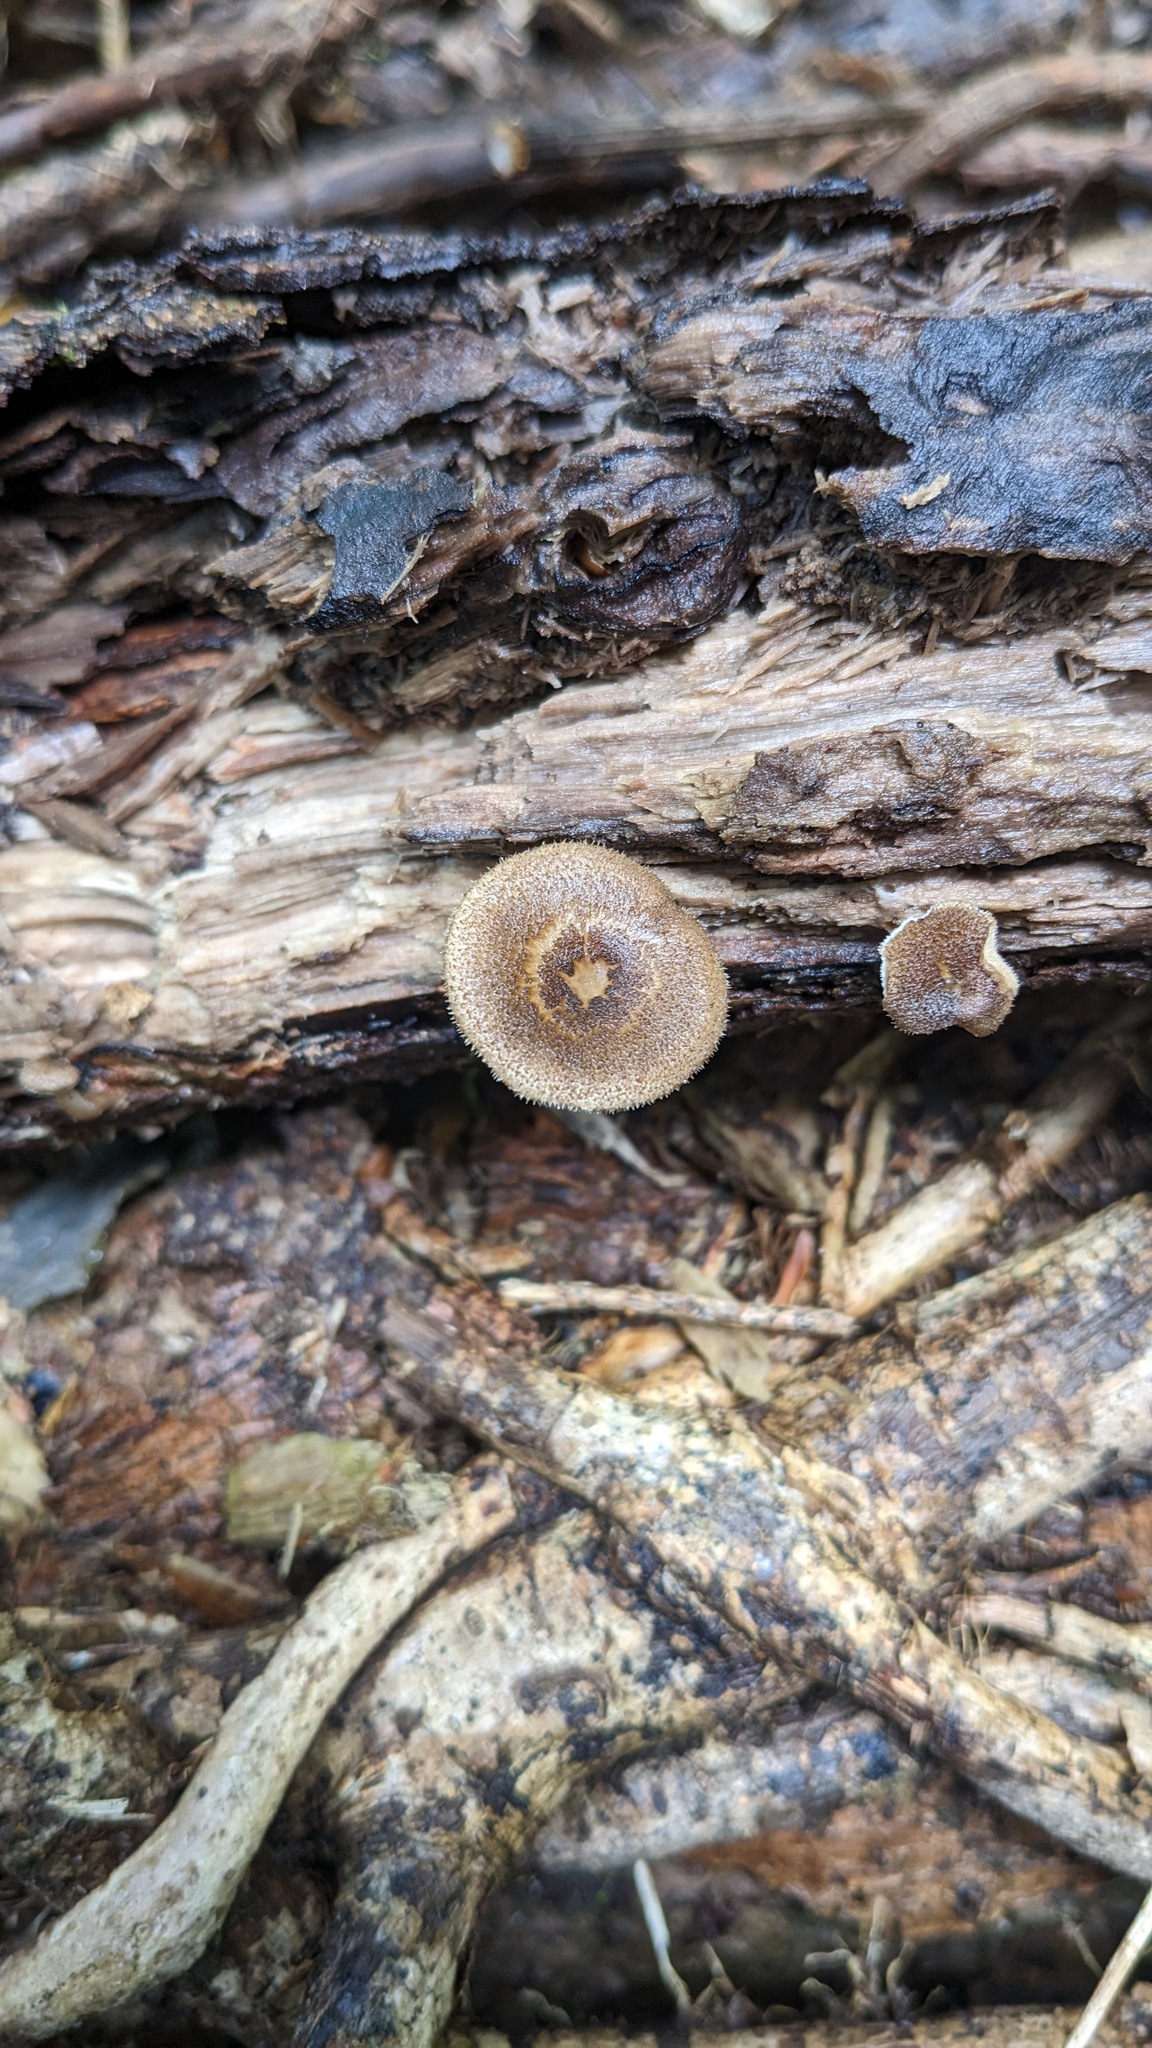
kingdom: Fungi
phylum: Basidiomycota
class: Agaricomycetes
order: Polyporales
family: Polyporaceae
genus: Lentinus
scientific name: Lentinus arcularius
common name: Spring polypore
